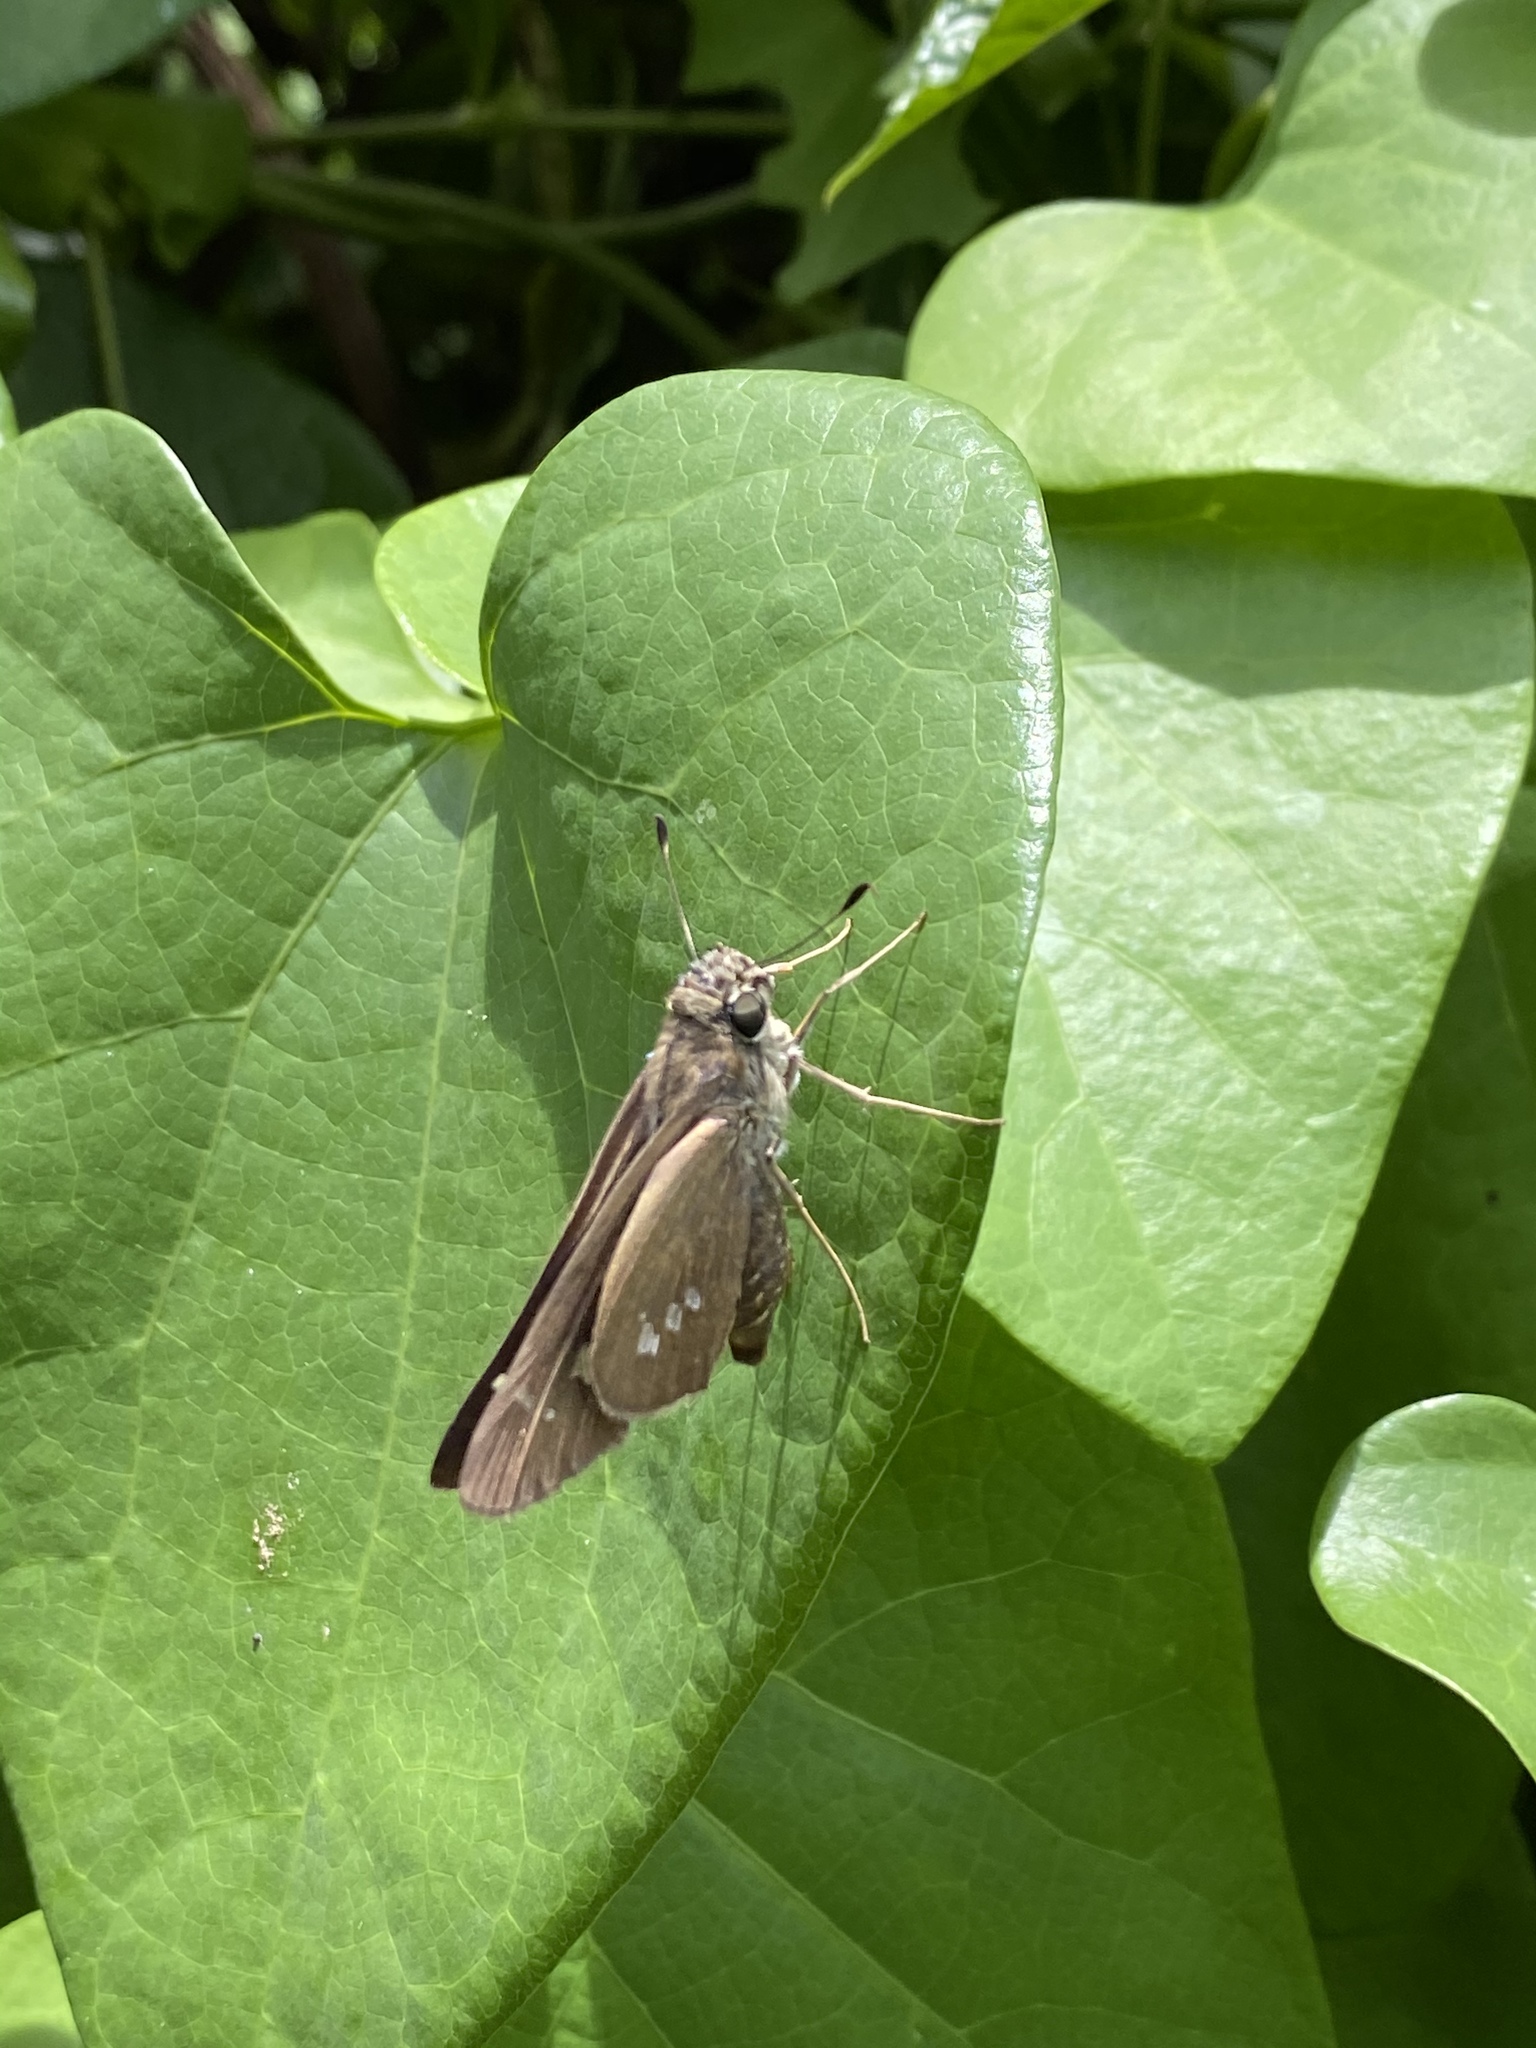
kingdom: Animalia
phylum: Arthropoda
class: Insecta
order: Lepidoptera
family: Hesperiidae
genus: Calpodes
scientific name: Calpodes ethlius
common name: Brazilian skipper
